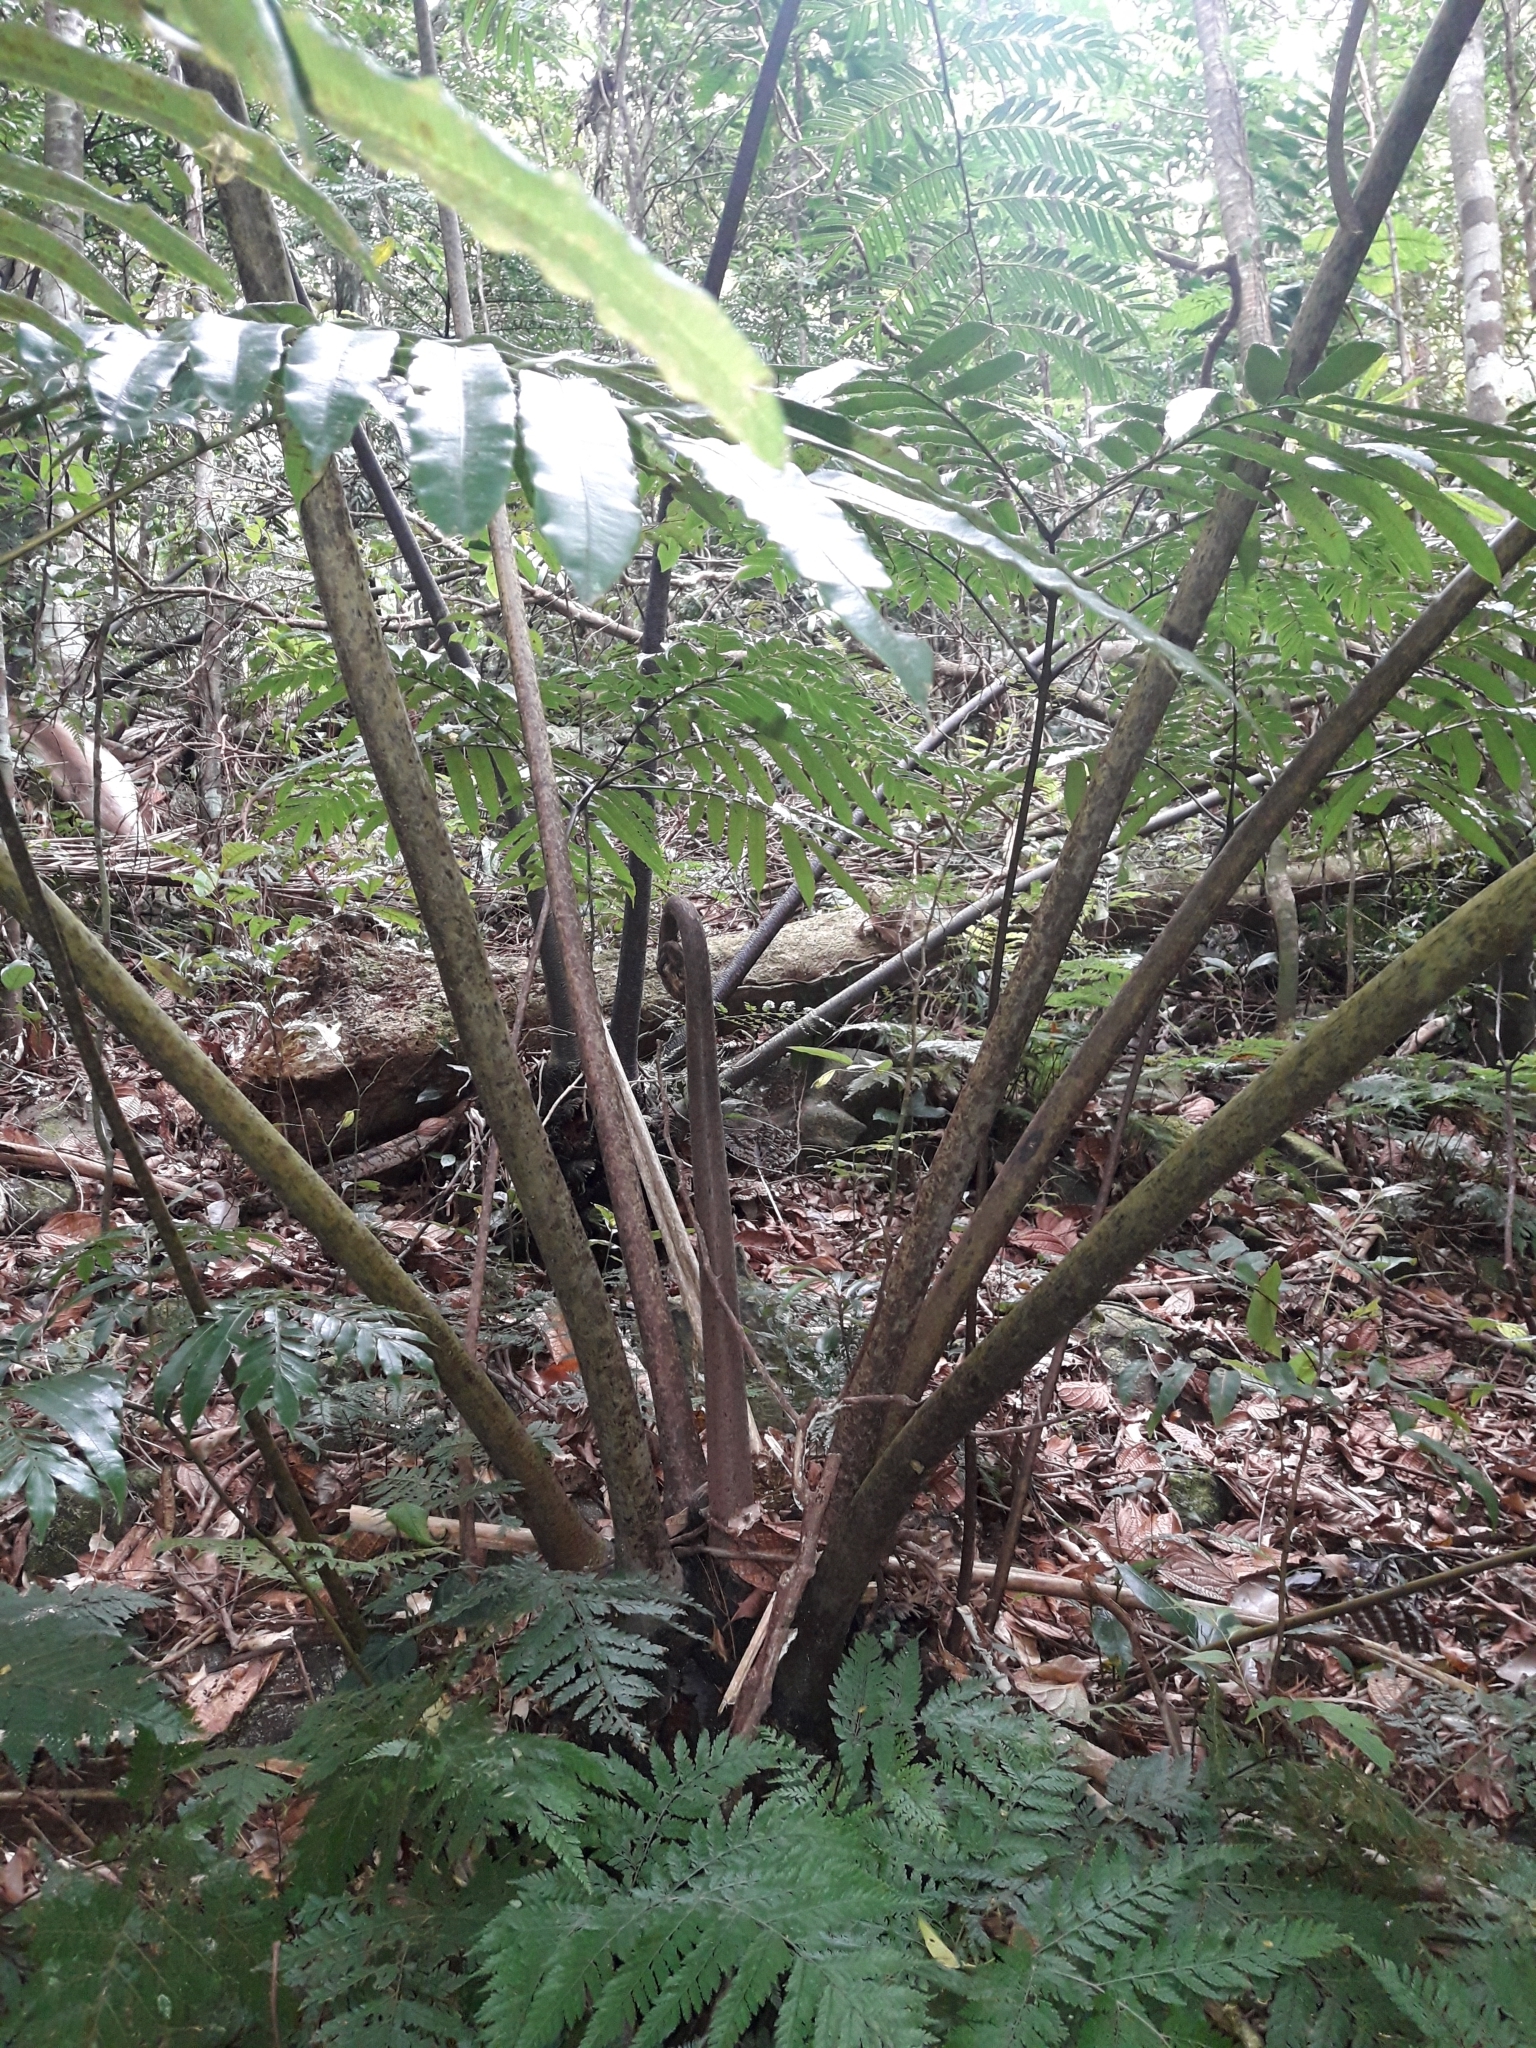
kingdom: Plantae
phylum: Tracheophyta
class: Polypodiopsida
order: Marattiales
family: Marattiaceae
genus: Ptisana
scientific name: Ptisana salicina
